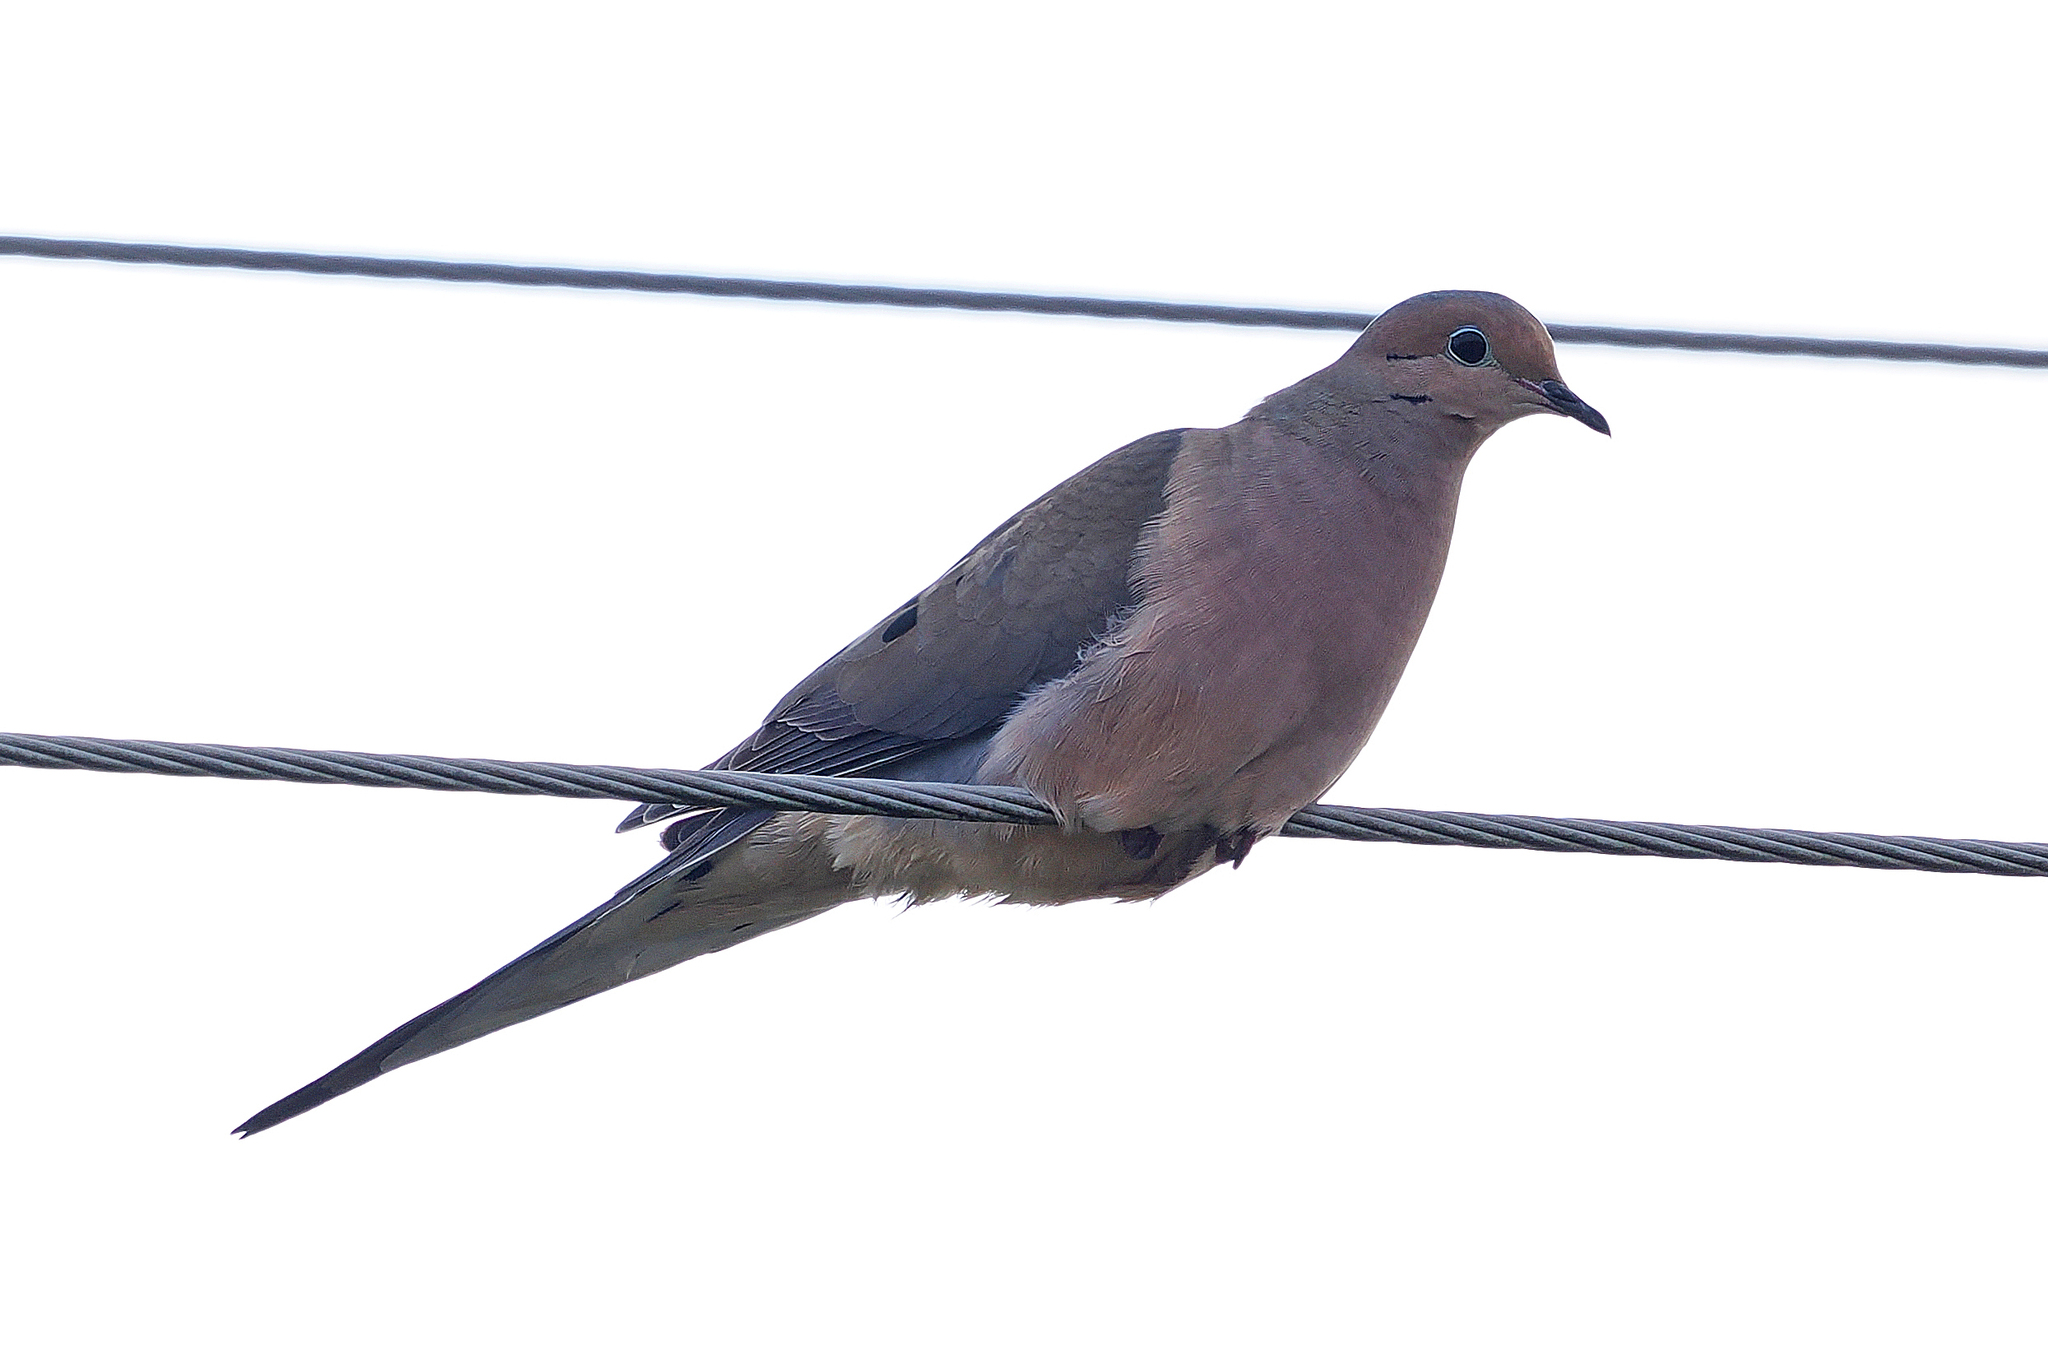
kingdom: Animalia
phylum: Chordata
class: Aves
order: Columbiformes
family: Columbidae
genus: Zenaida
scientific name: Zenaida macroura
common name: Mourning dove
